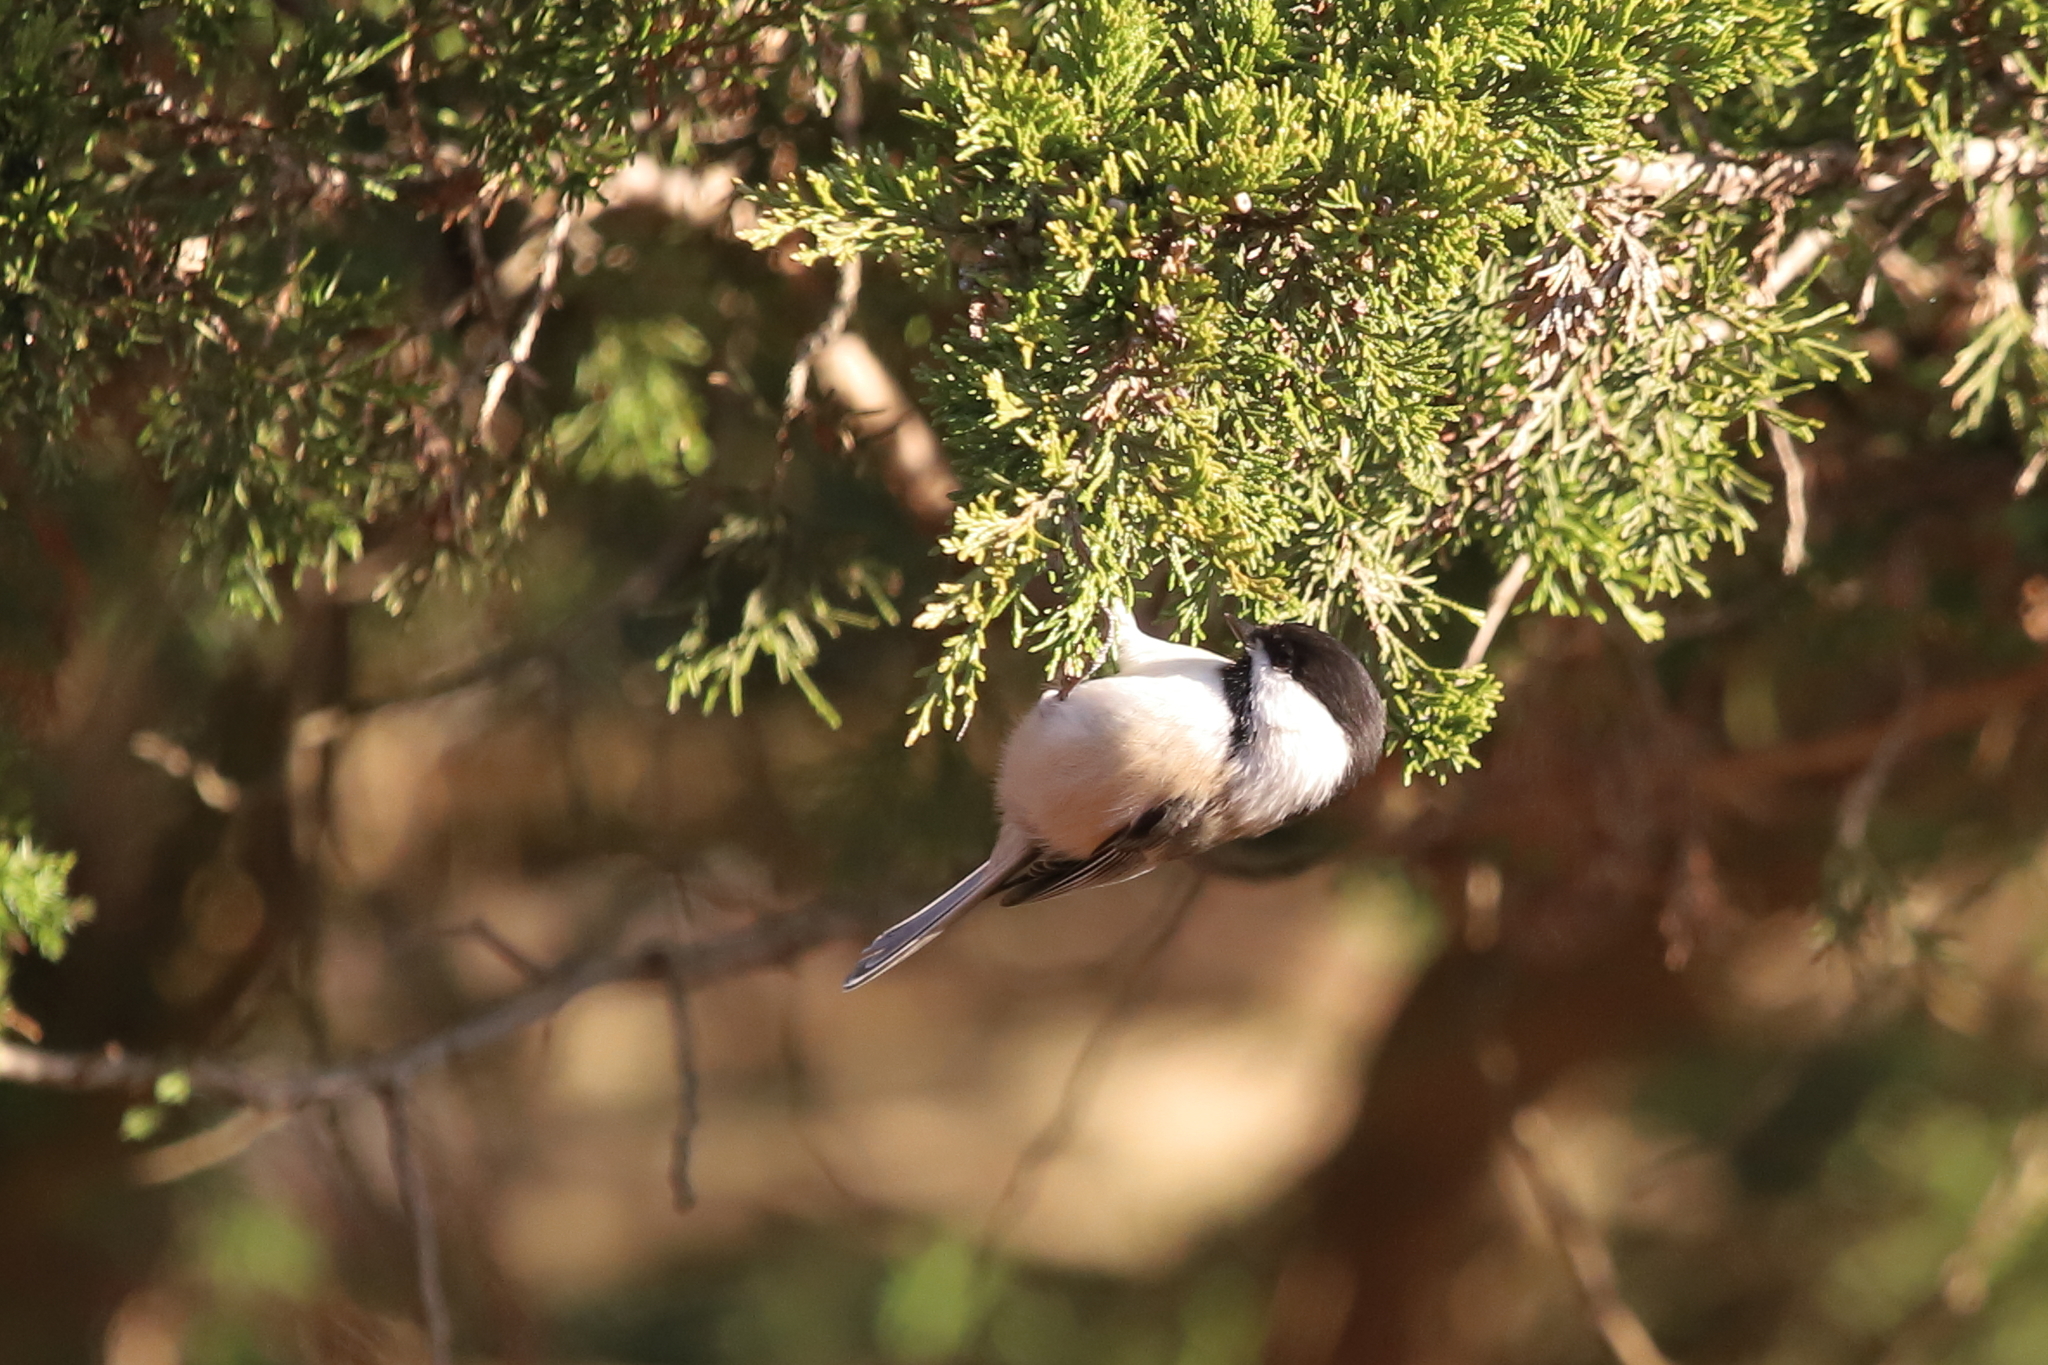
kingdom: Animalia
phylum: Chordata
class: Aves
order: Passeriformes
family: Paridae
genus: Poecile
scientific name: Poecile atricapillus
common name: Black-capped chickadee
